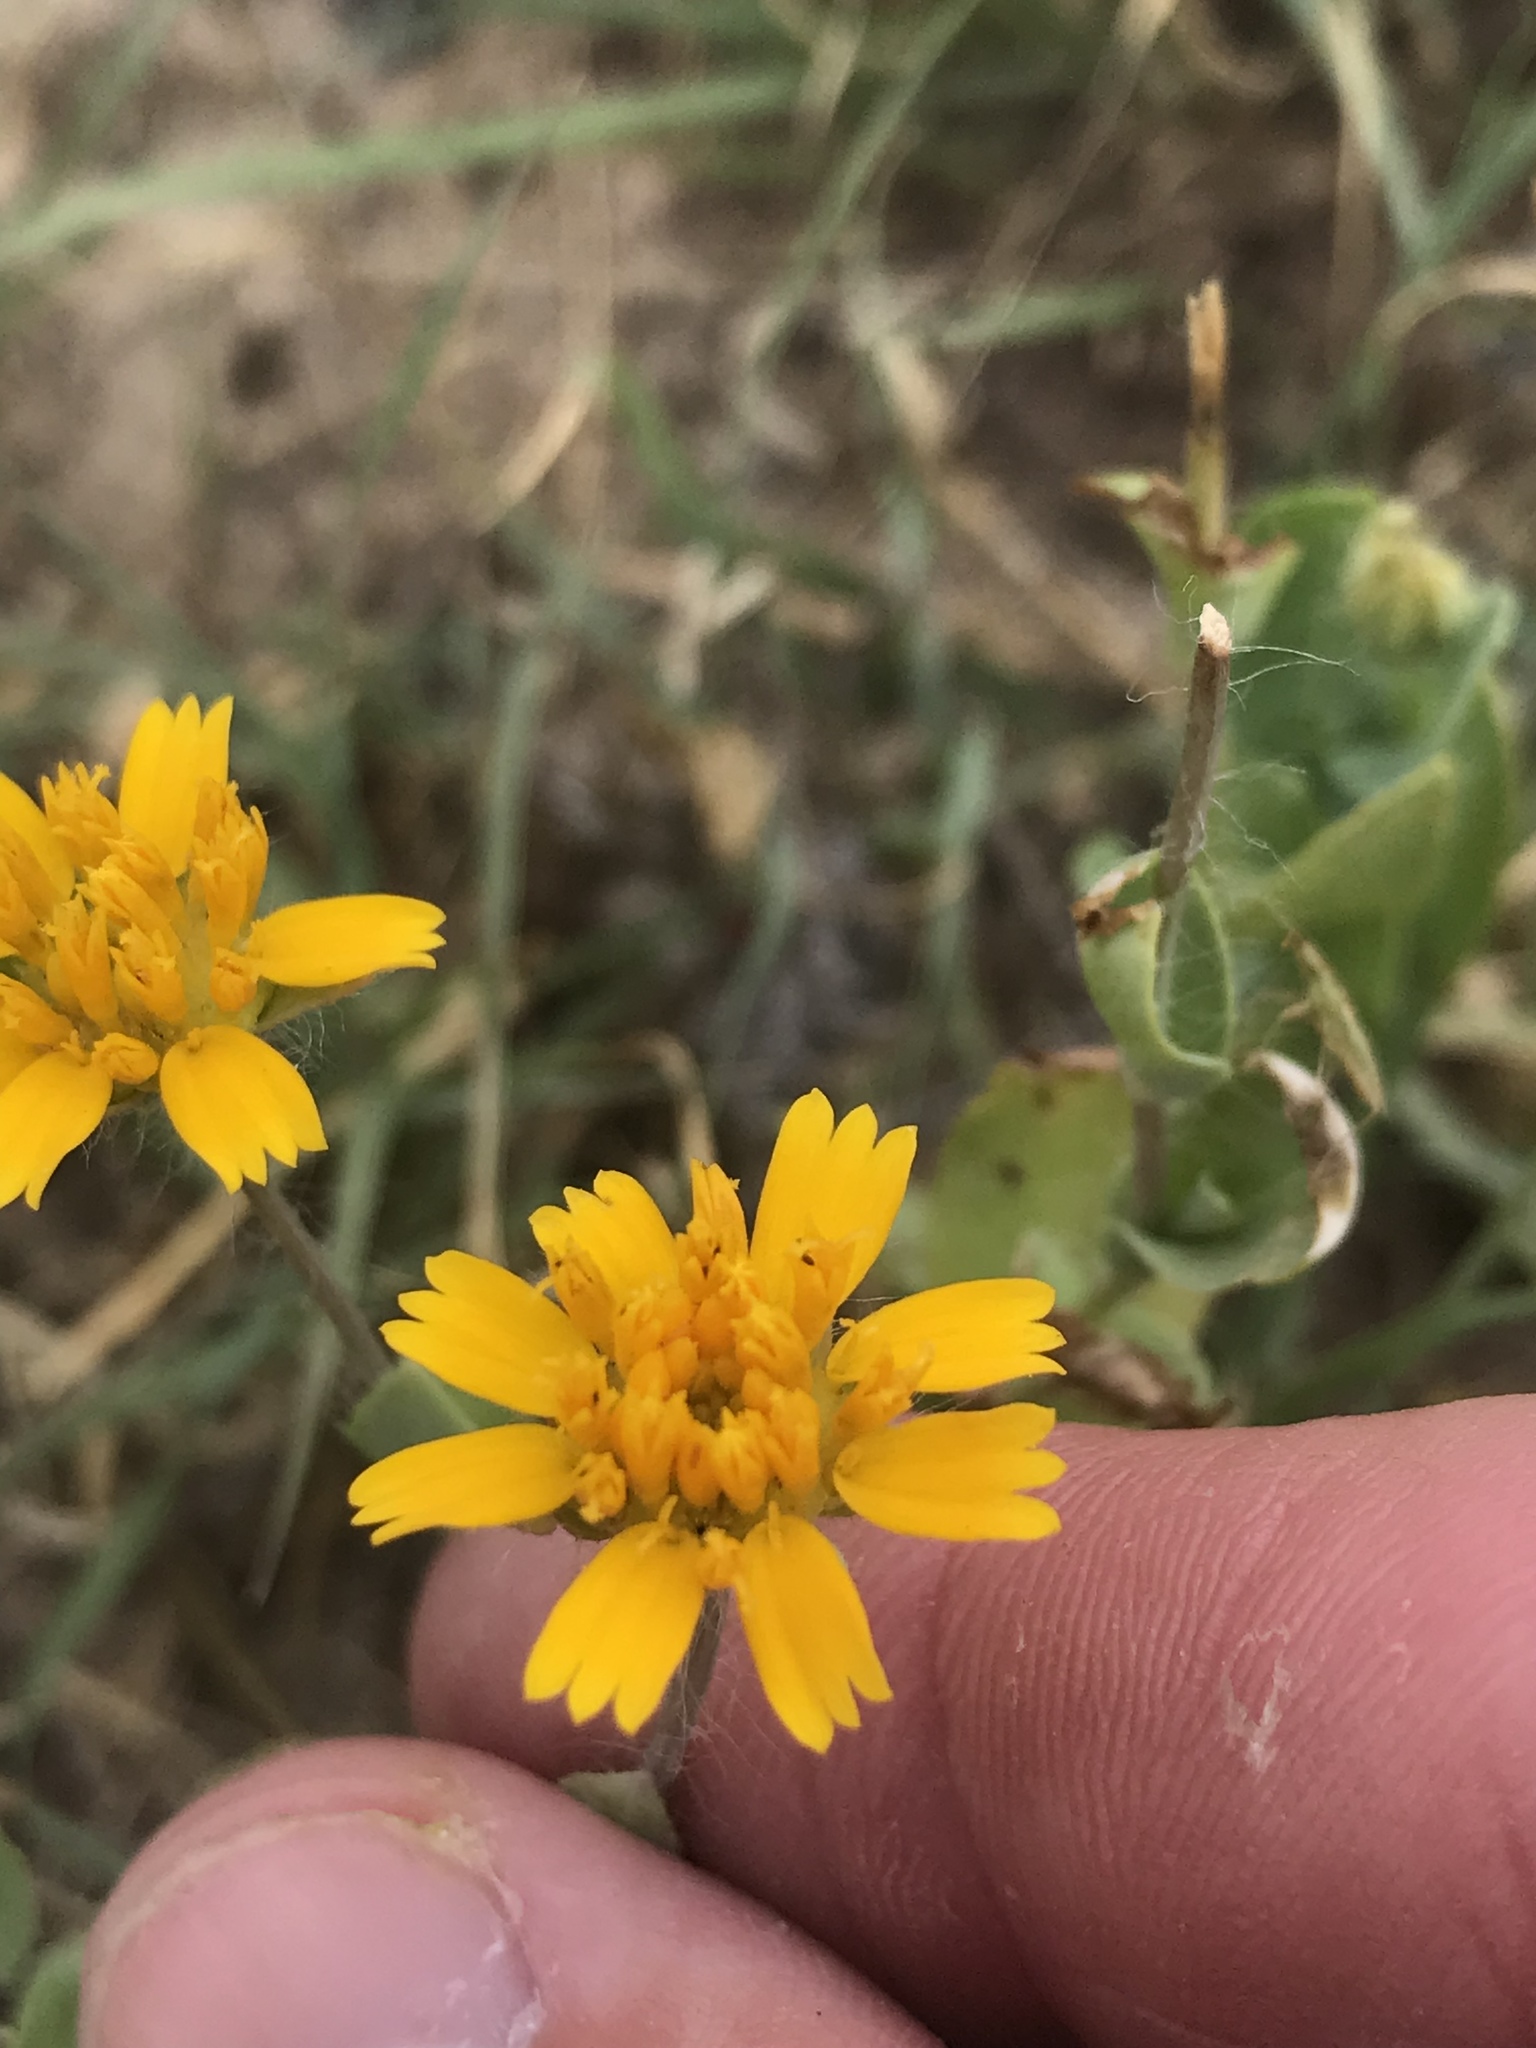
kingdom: Plantae
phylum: Tracheophyta
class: Magnoliopsida
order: Asterales
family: Asteraceae
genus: Amblyolepis
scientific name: Amblyolepis setigera
